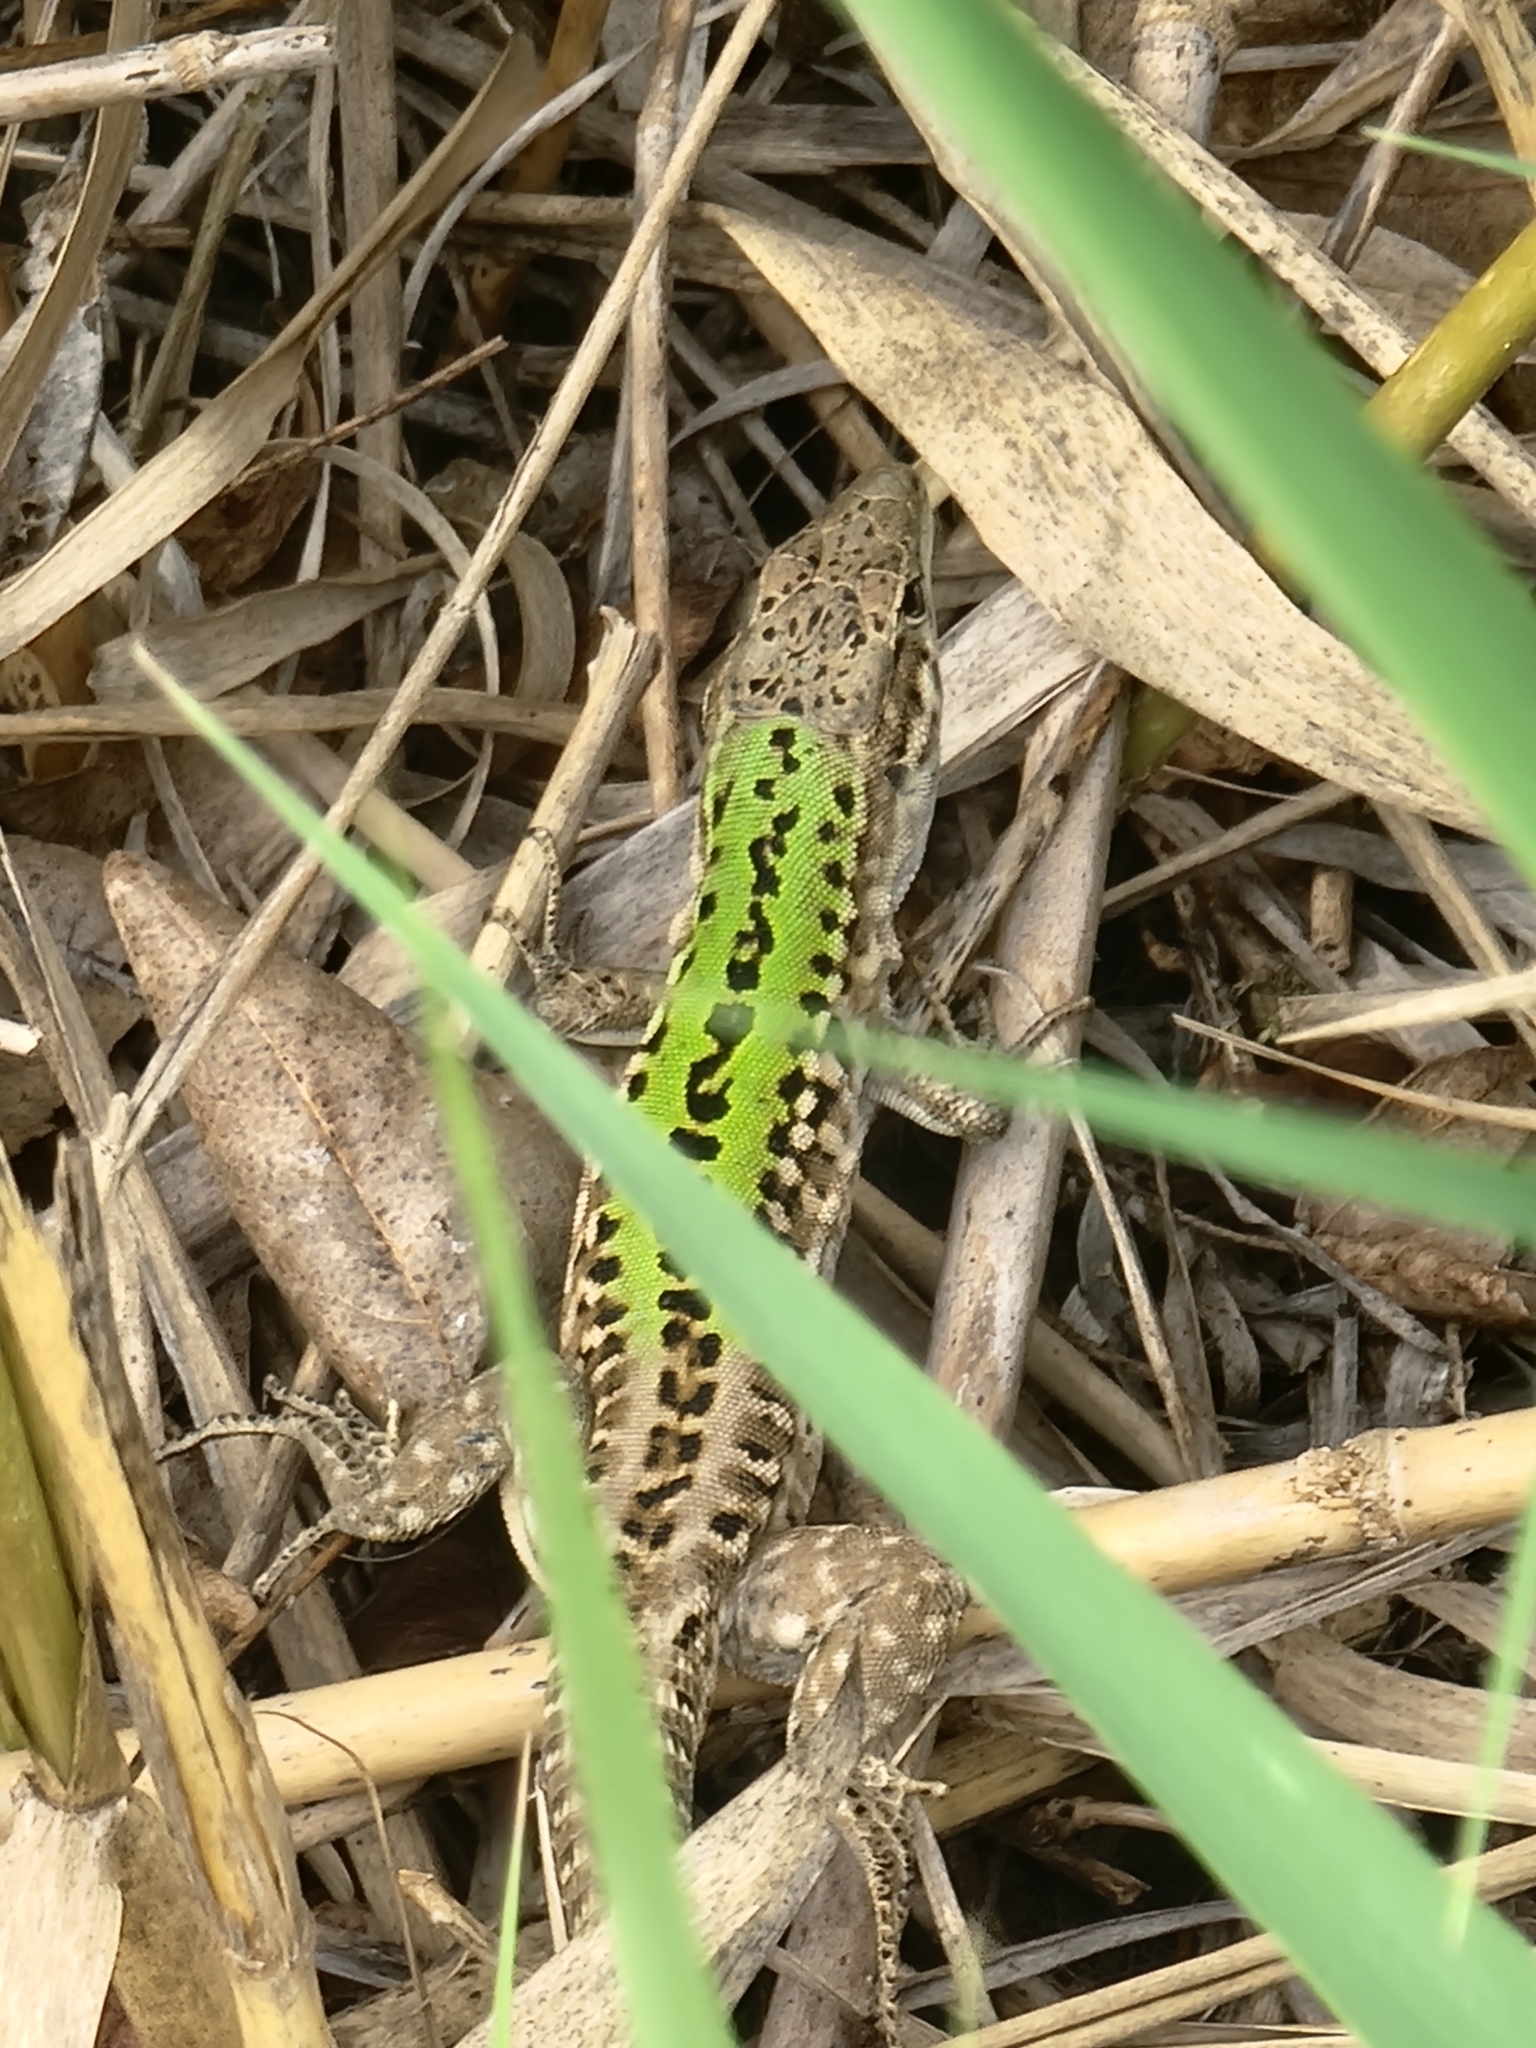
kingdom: Animalia
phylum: Chordata
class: Squamata
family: Lacertidae
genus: Podarcis
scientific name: Podarcis siculus
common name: Italian wall lizard
